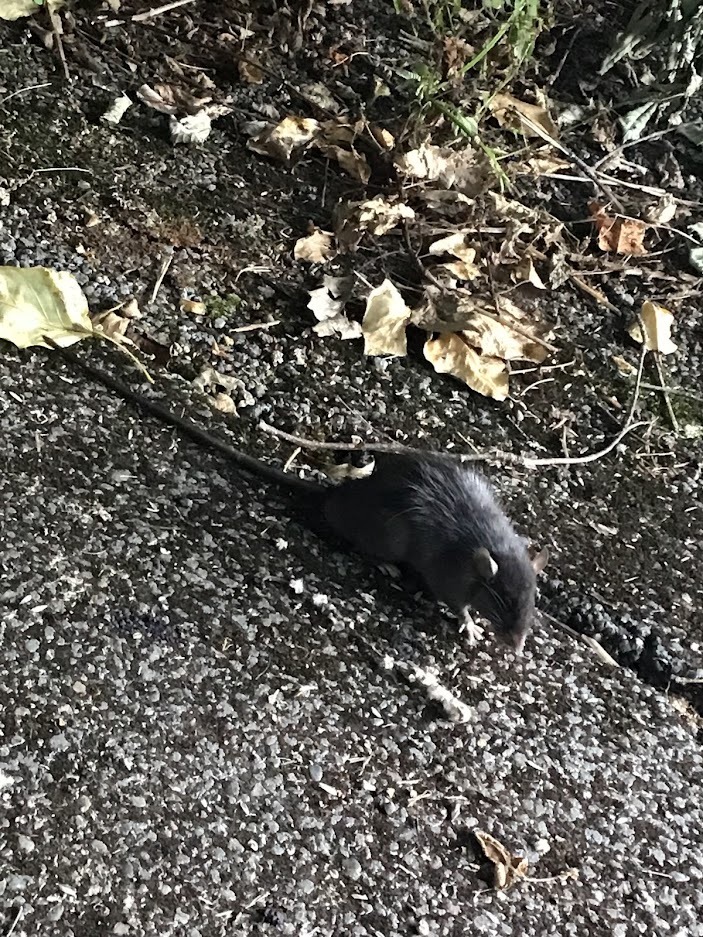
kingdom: Animalia
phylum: Chordata
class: Mammalia
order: Rodentia
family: Muridae
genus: Rattus
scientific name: Rattus rattus
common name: Black rat
